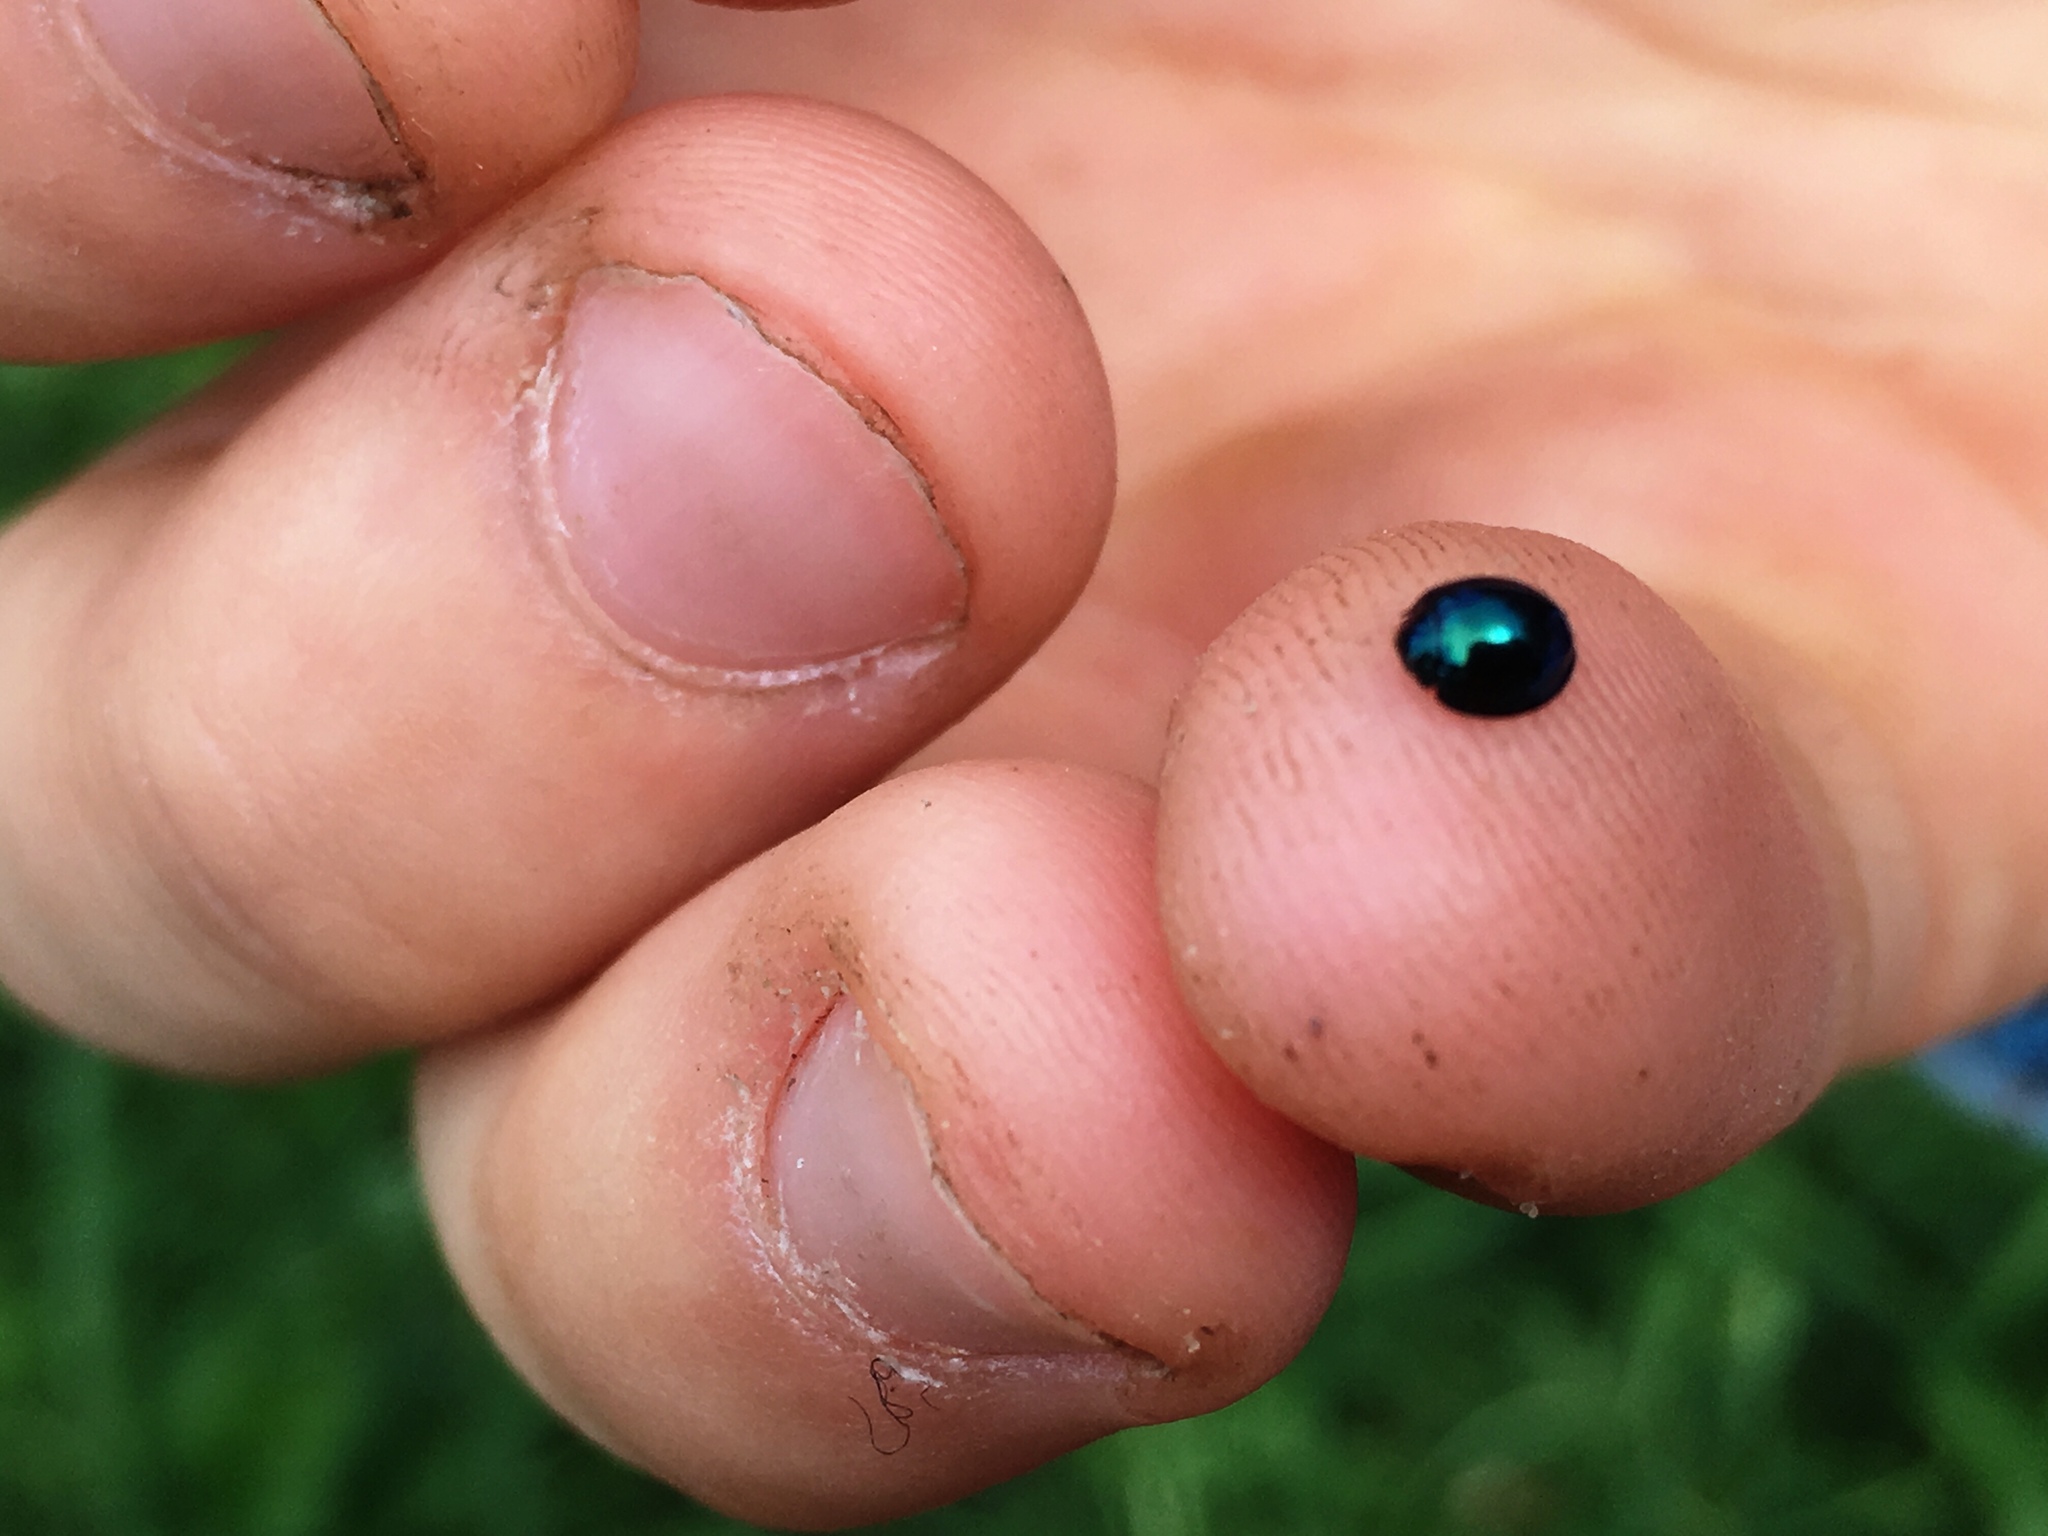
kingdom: Animalia
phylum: Arthropoda
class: Insecta
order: Coleoptera
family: Coccinellidae
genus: Halmus
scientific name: Halmus chalybeus
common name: Steel blue ladybird beetle
